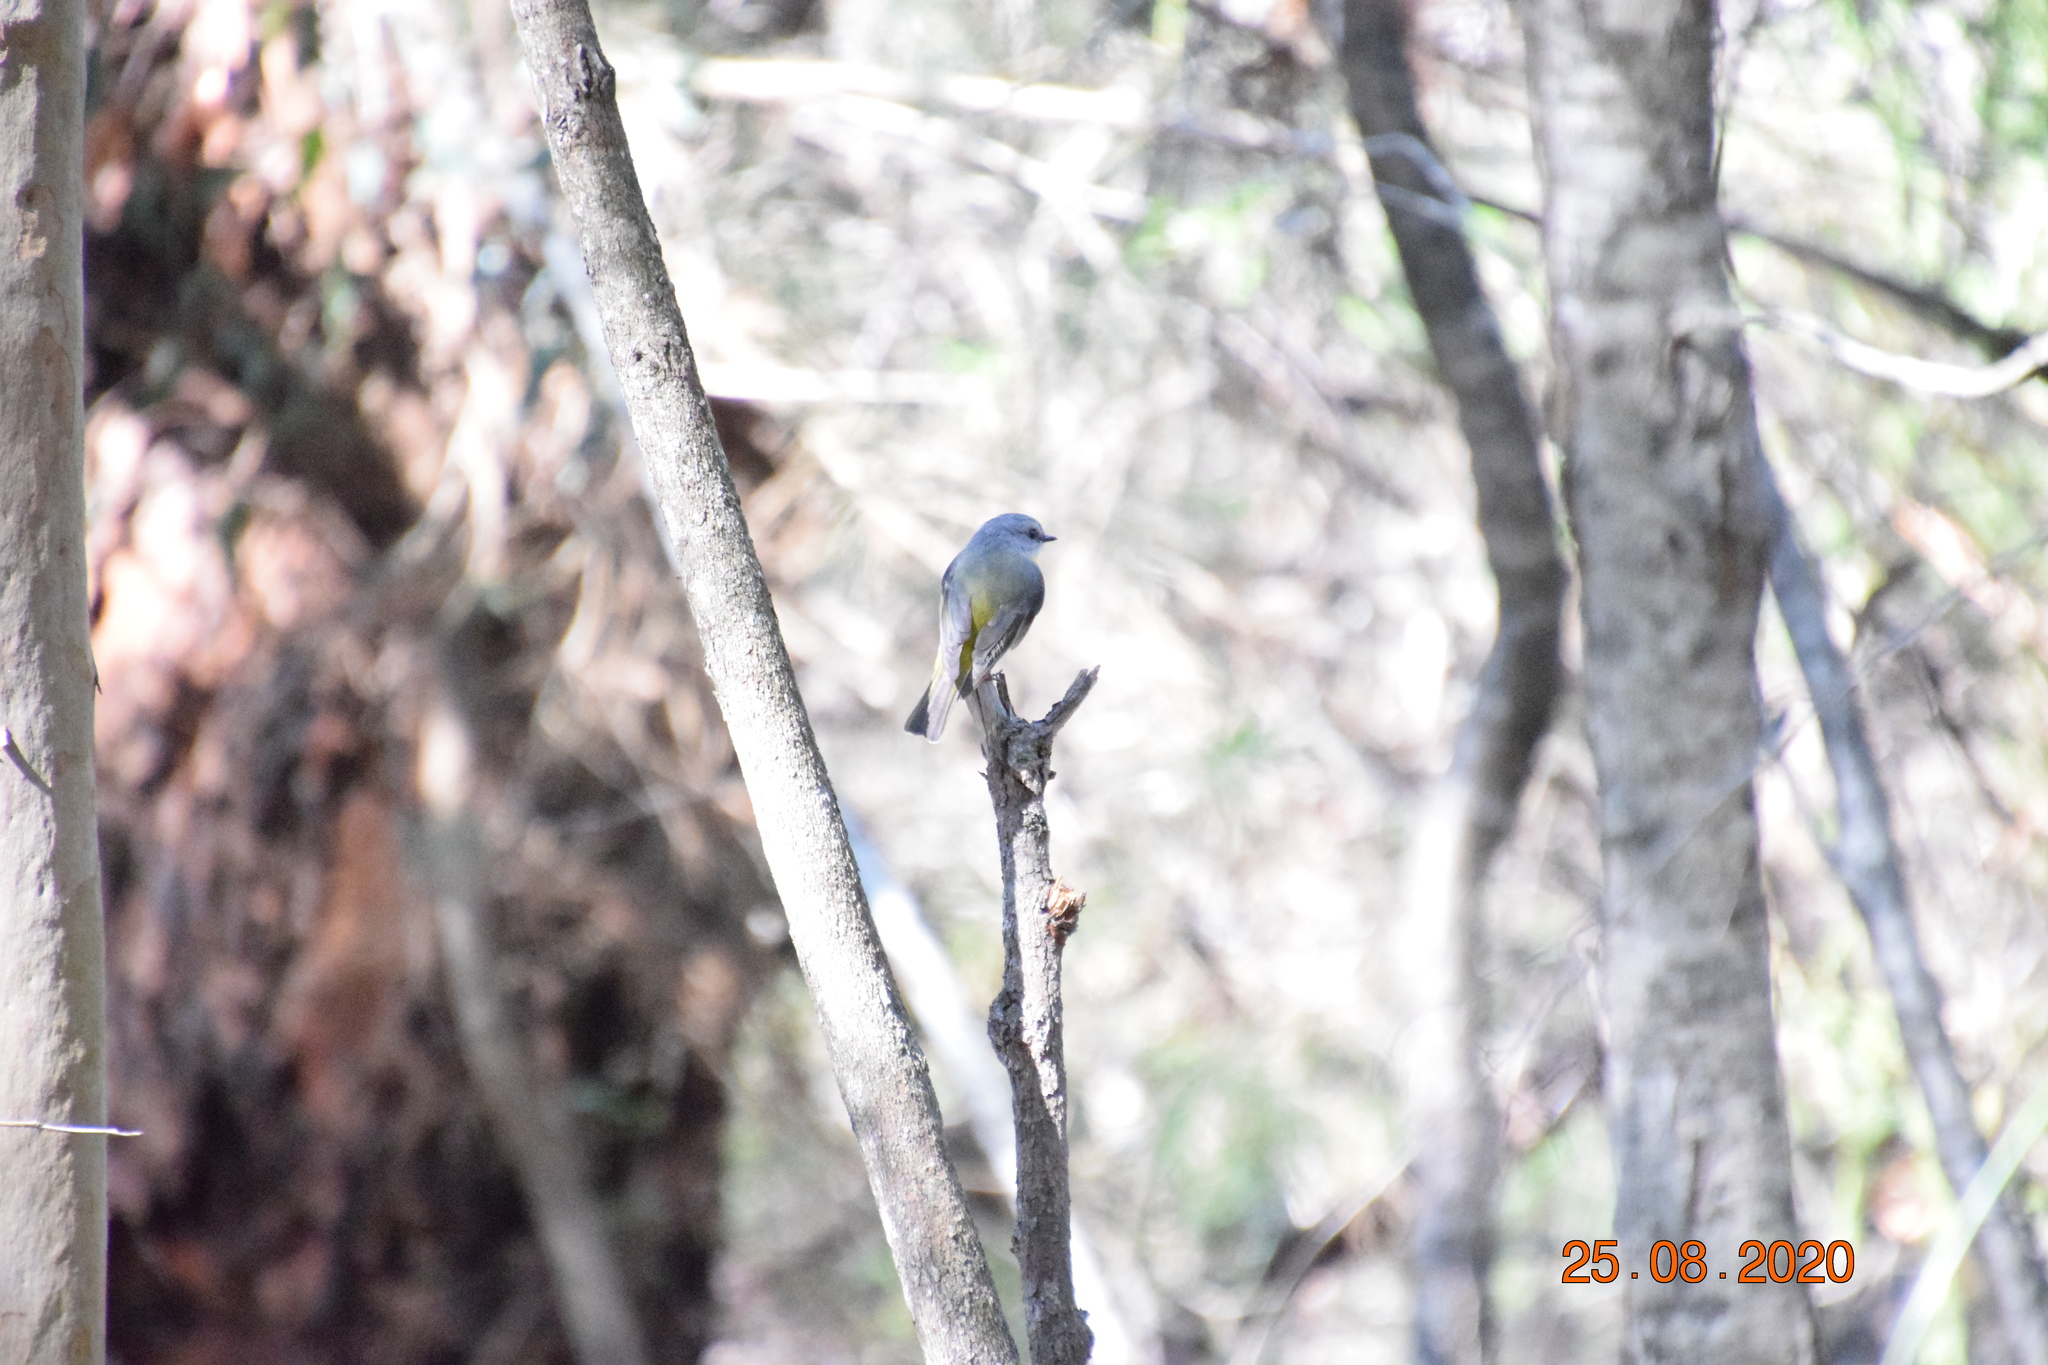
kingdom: Animalia
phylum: Chordata
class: Aves
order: Passeriformes
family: Petroicidae
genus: Eopsaltria
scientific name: Eopsaltria australis
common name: Eastern yellow robin
